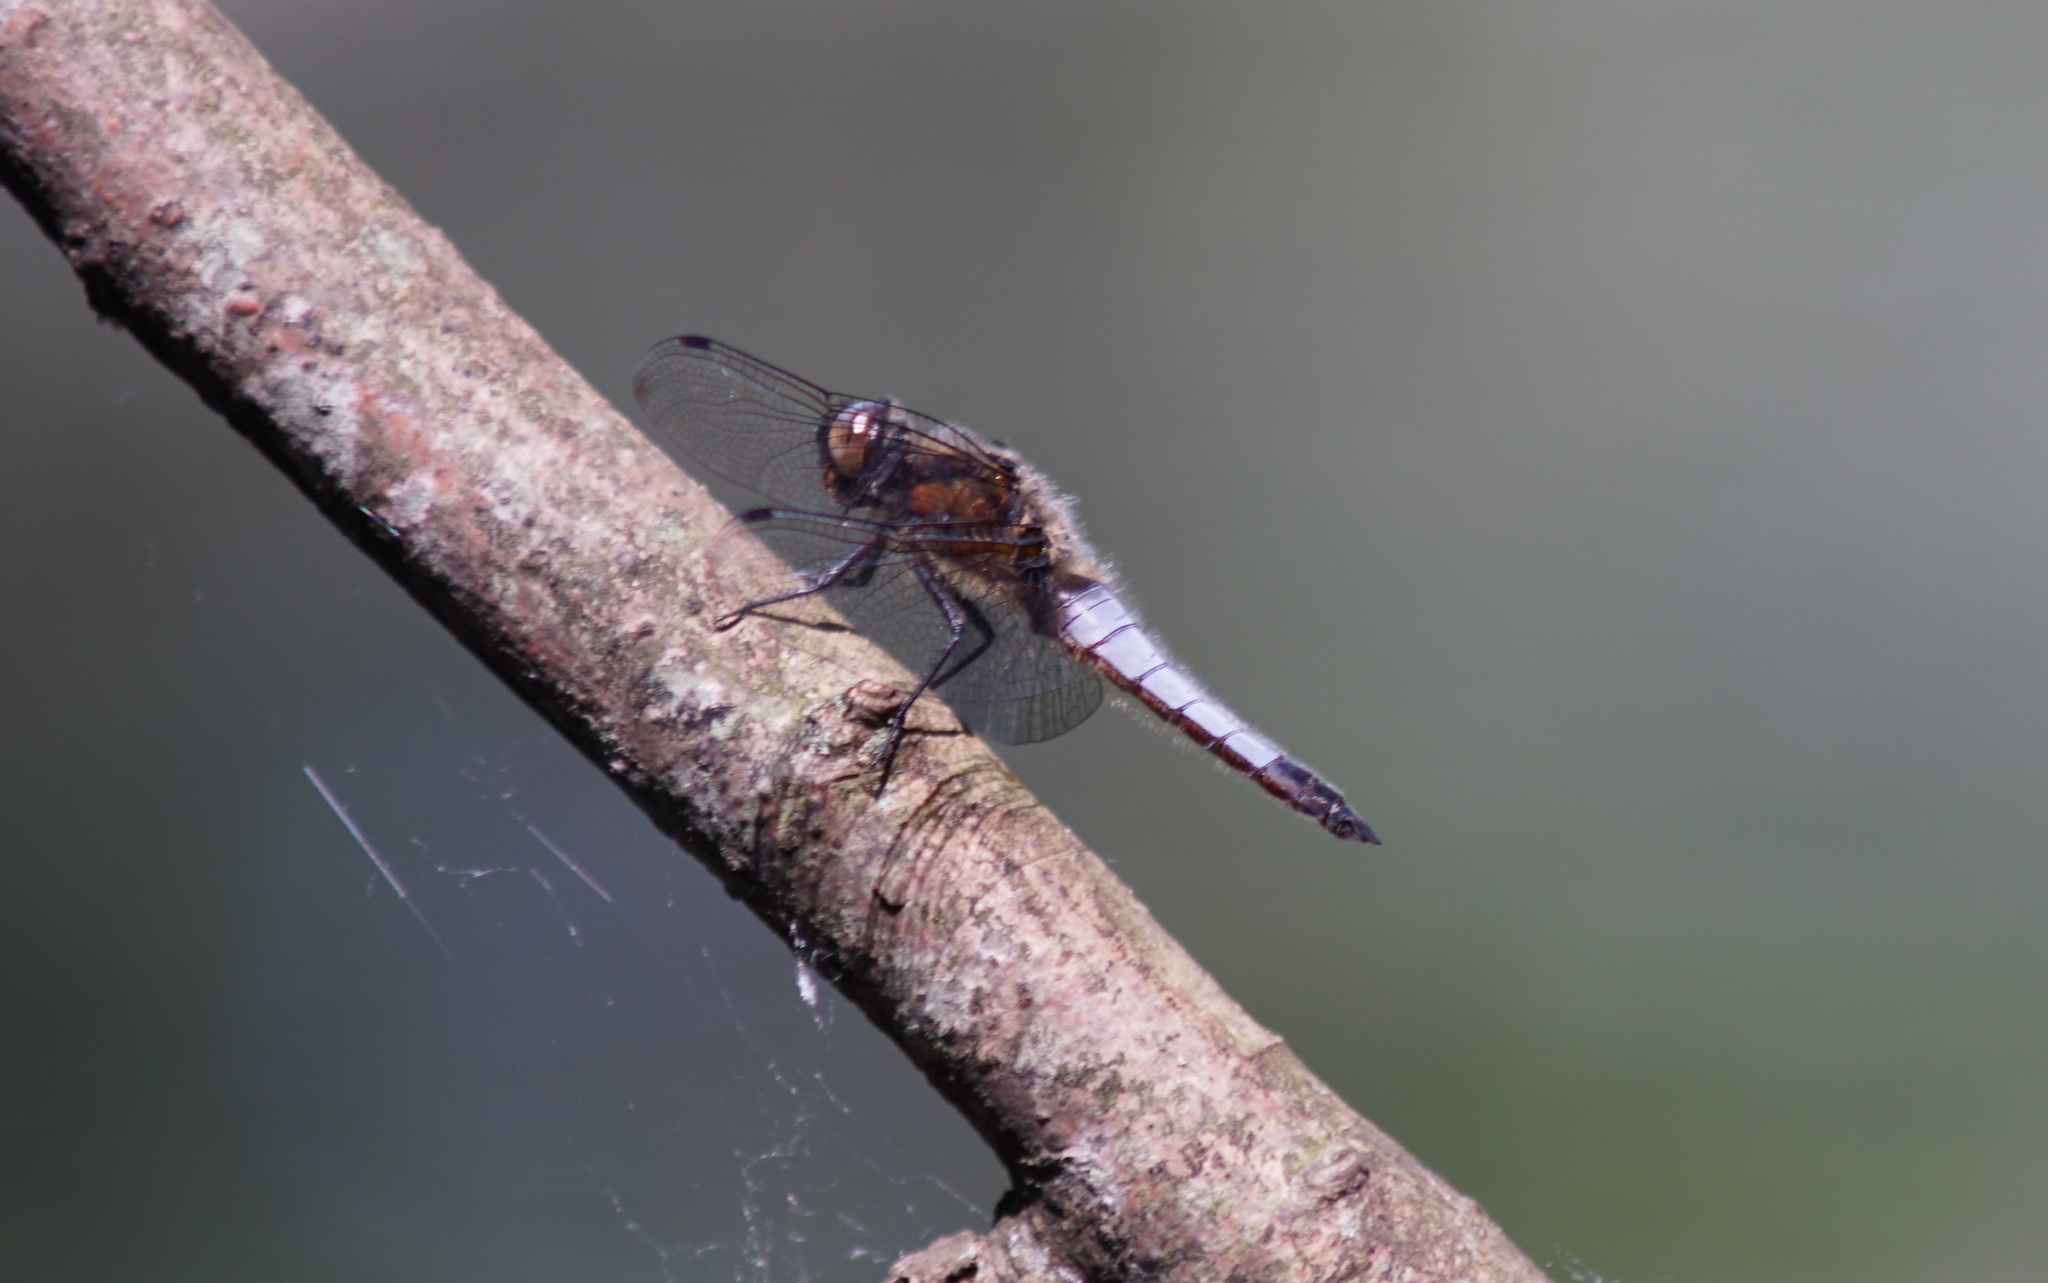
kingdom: Animalia
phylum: Arthropoda
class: Insecta
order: Odonata
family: Libellulidae
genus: Libellula
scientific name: Libellula fulva
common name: Blue chaser
